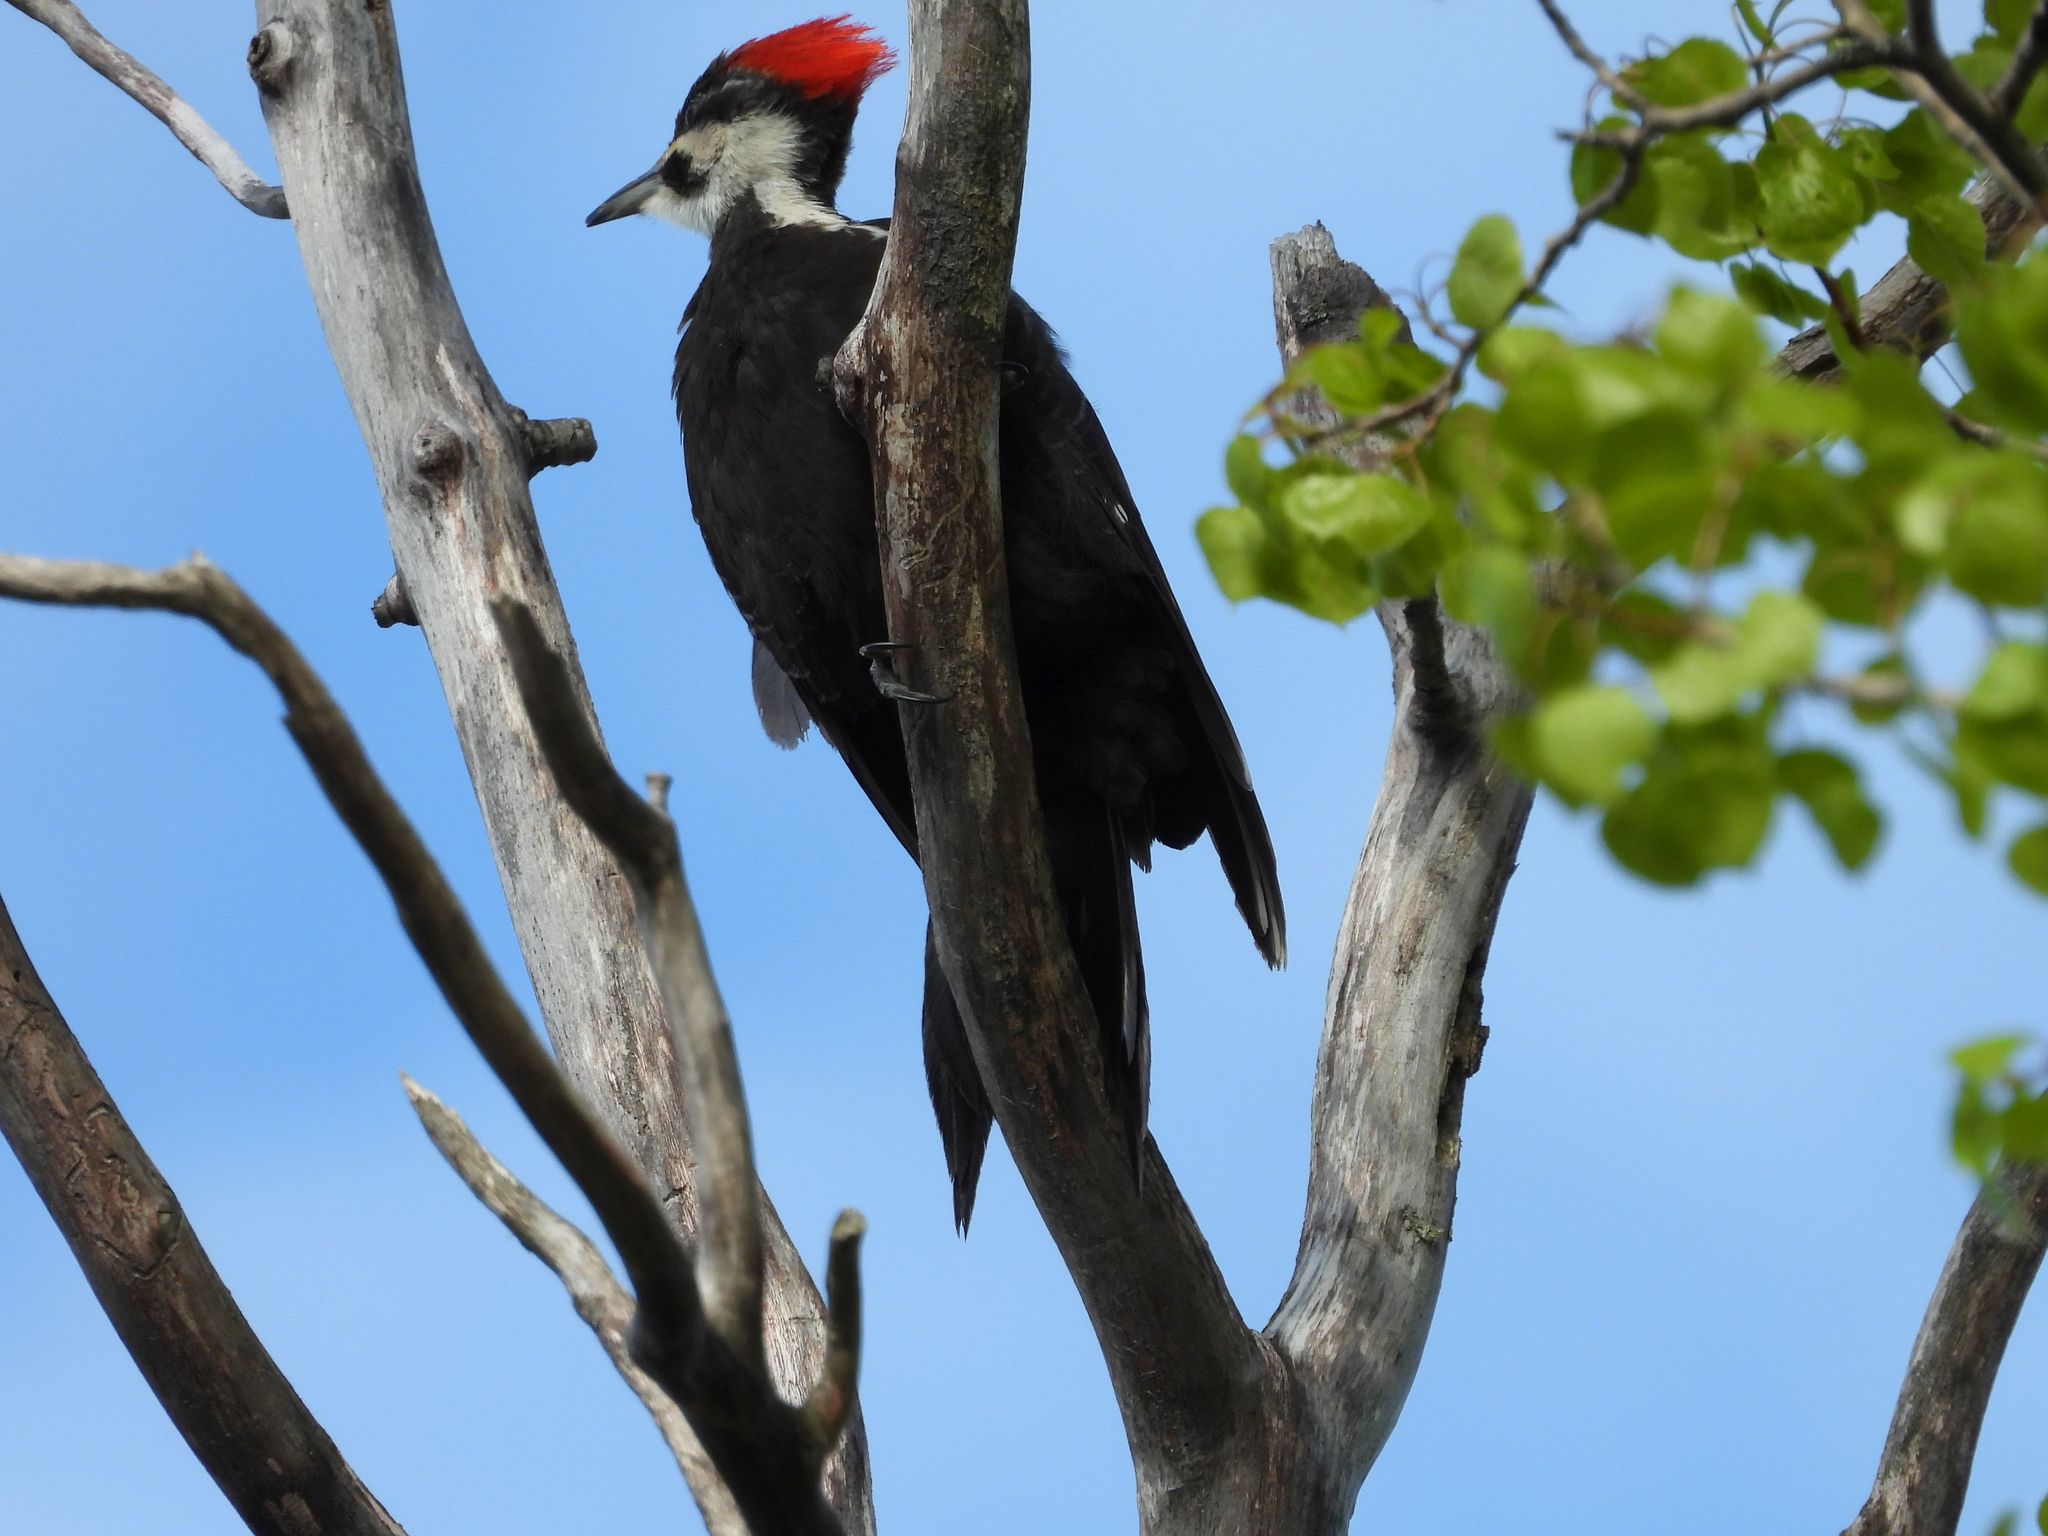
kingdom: Animalia
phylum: Chordata
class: Aves
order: Piciformes
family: Picidae
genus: Dryocopus
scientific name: Dryocopus pileatus
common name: Pileated woodpecker
